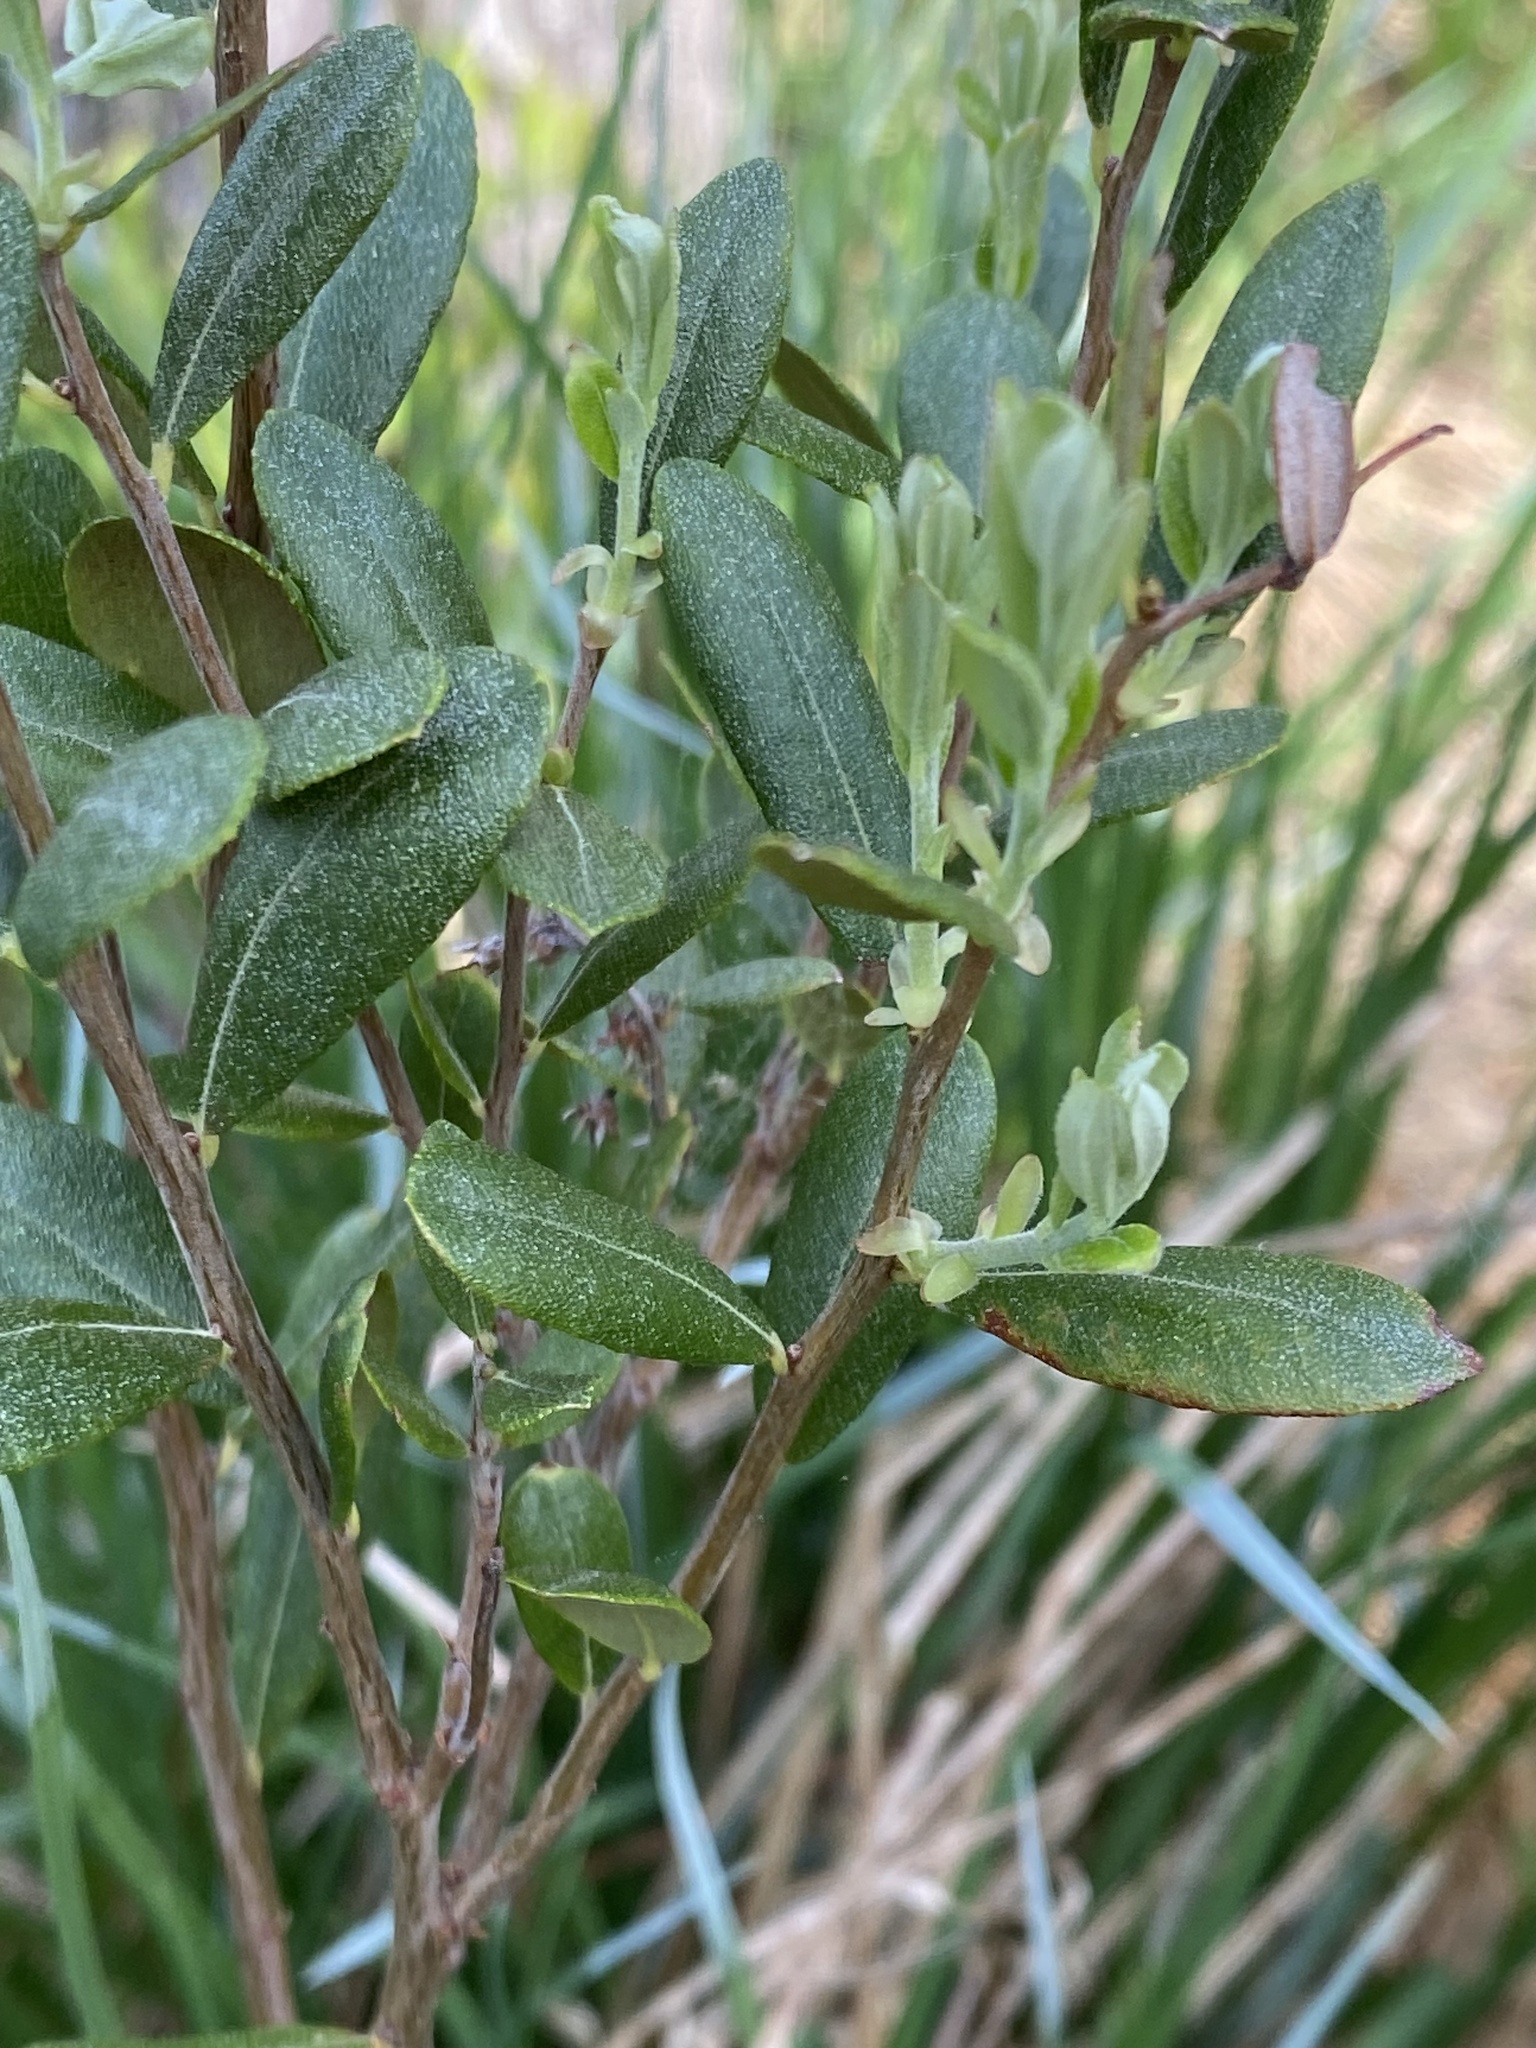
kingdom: Plantae
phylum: Tracheophyta
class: Magnoliopsida
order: Ericales
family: Ericaceae
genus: Chamaedaphne
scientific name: Chamaedaphne calyculata
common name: Leatherleaf
